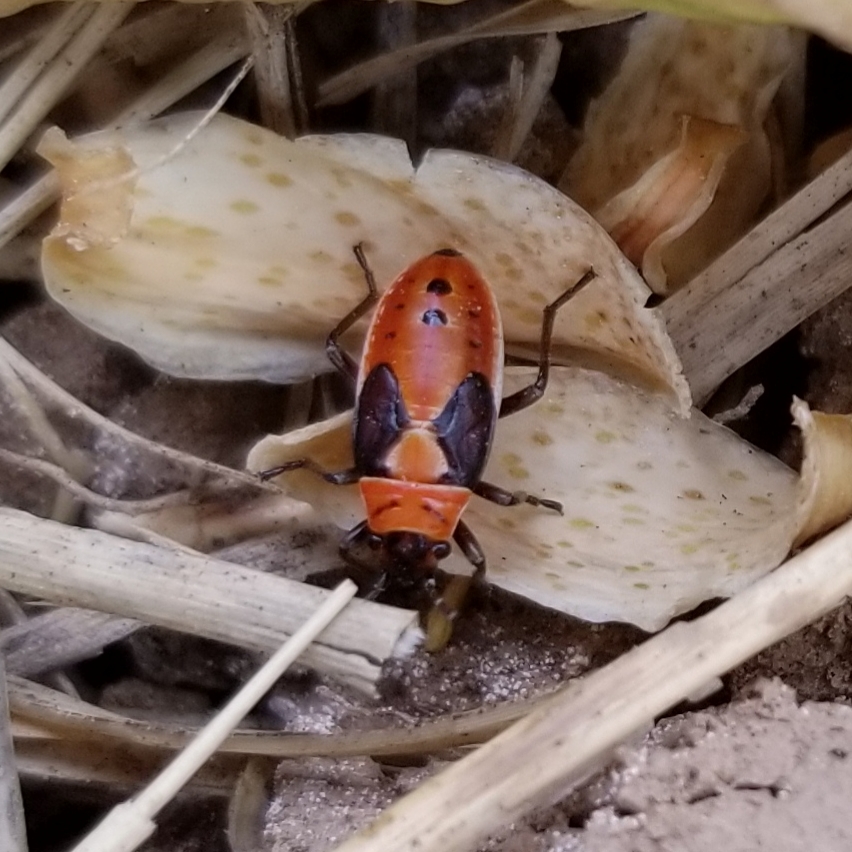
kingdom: Animalia
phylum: Arthropoda
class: Insecta
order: Hemiptera
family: Lygaeidae
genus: Lygaeus
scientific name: Lygaeus kalmii
